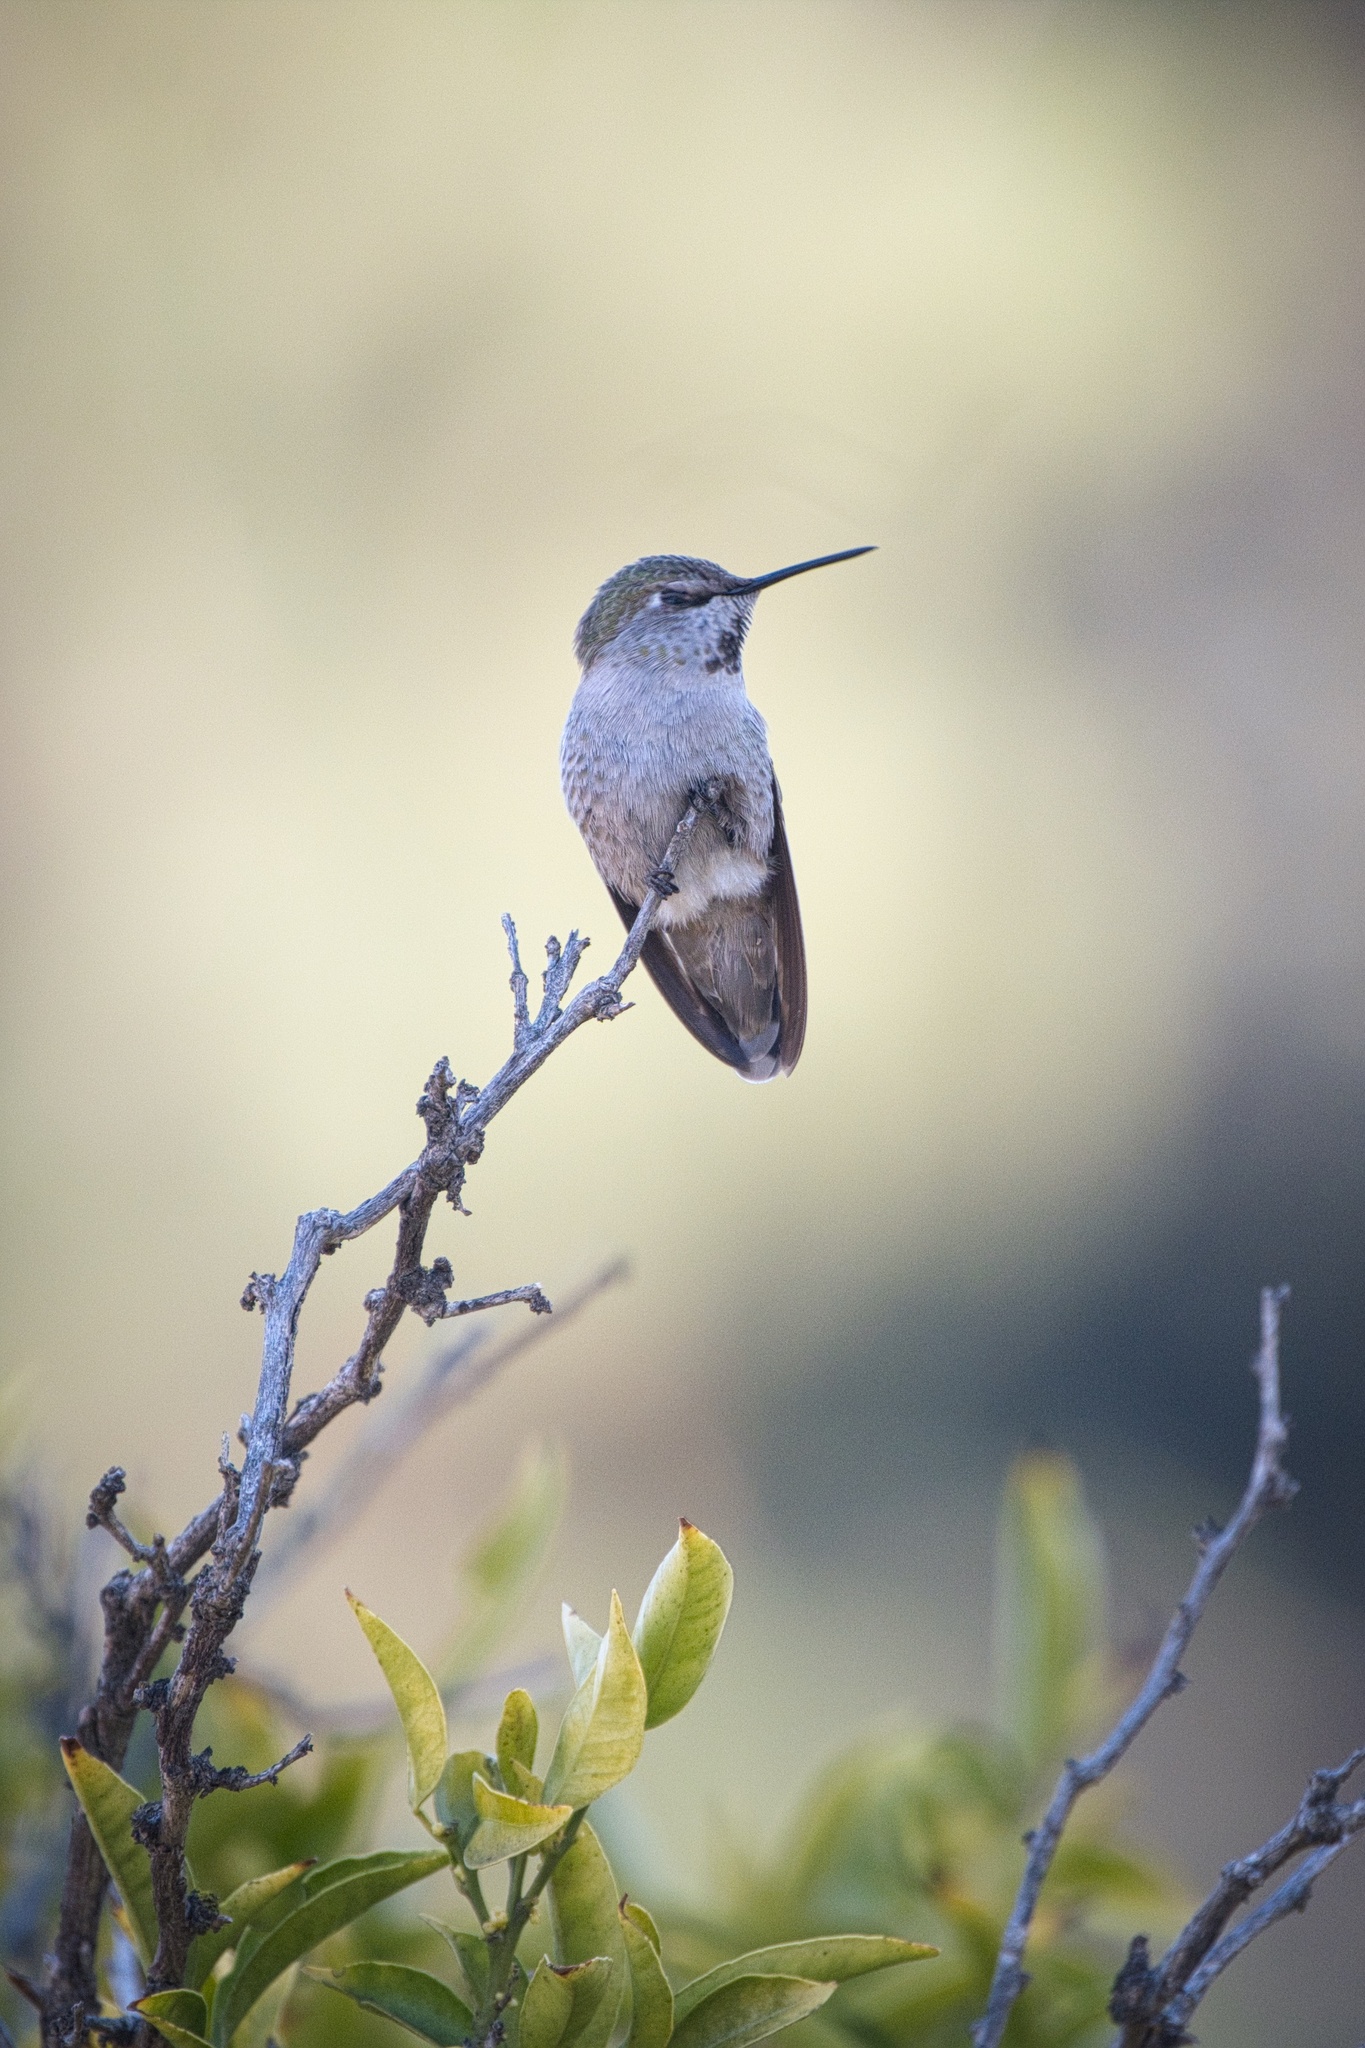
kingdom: Animalia
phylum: Chordata
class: Aves
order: Apodiformes
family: Trochilidae
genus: Calypte
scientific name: Calypte anna
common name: Anna's hummingbird
